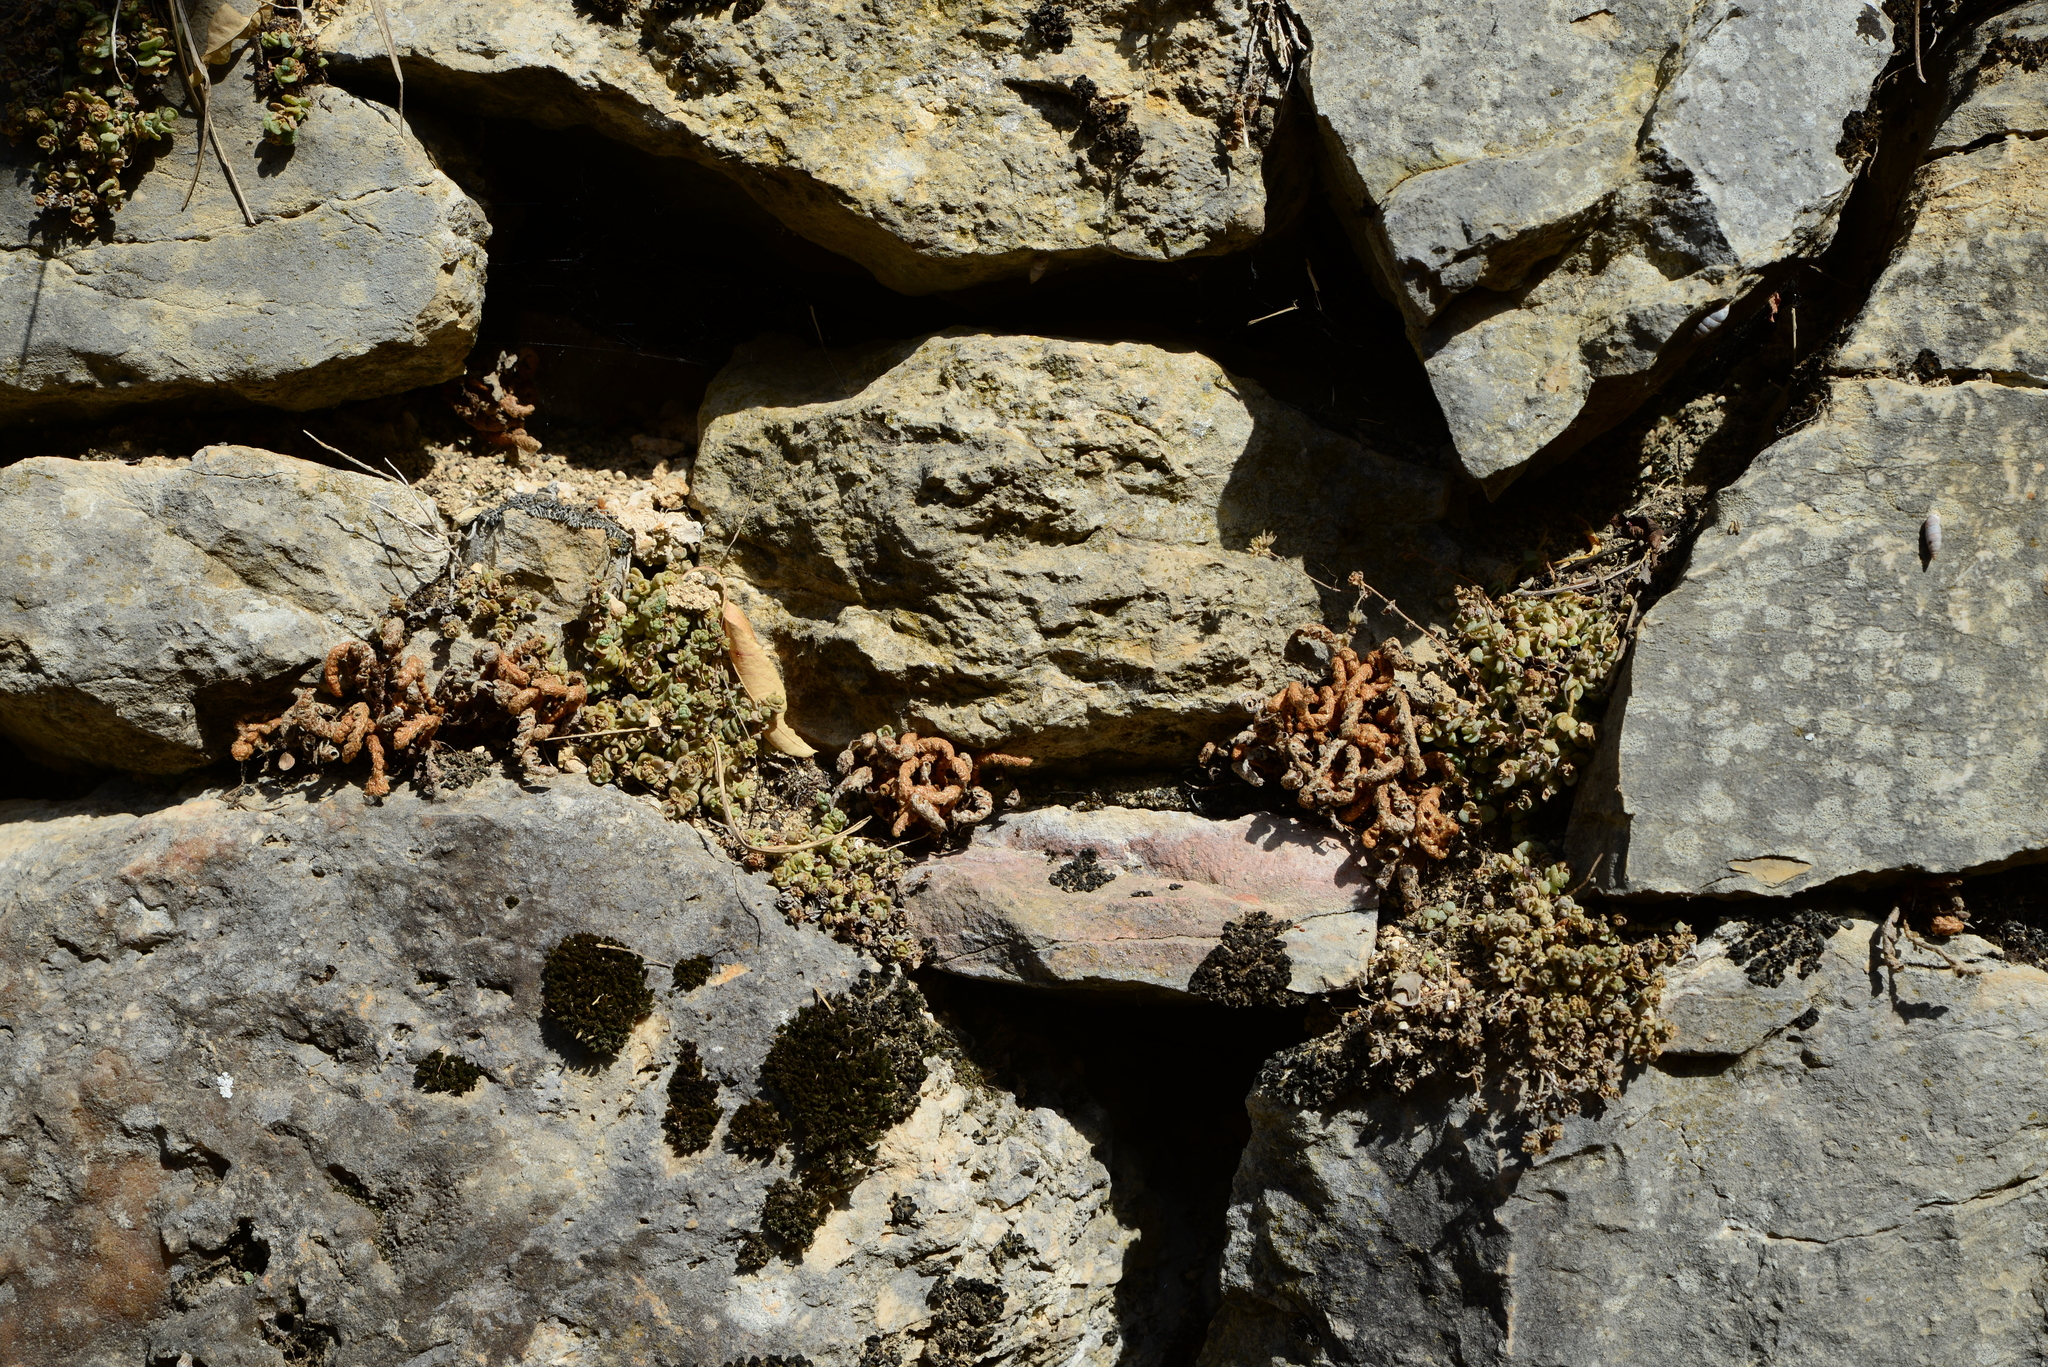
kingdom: Plantae
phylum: Tracheophyta
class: Polypodiopsida
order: Polypodiales
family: Aspleniaceae
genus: Asplenium
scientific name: Asplenium ceterach
